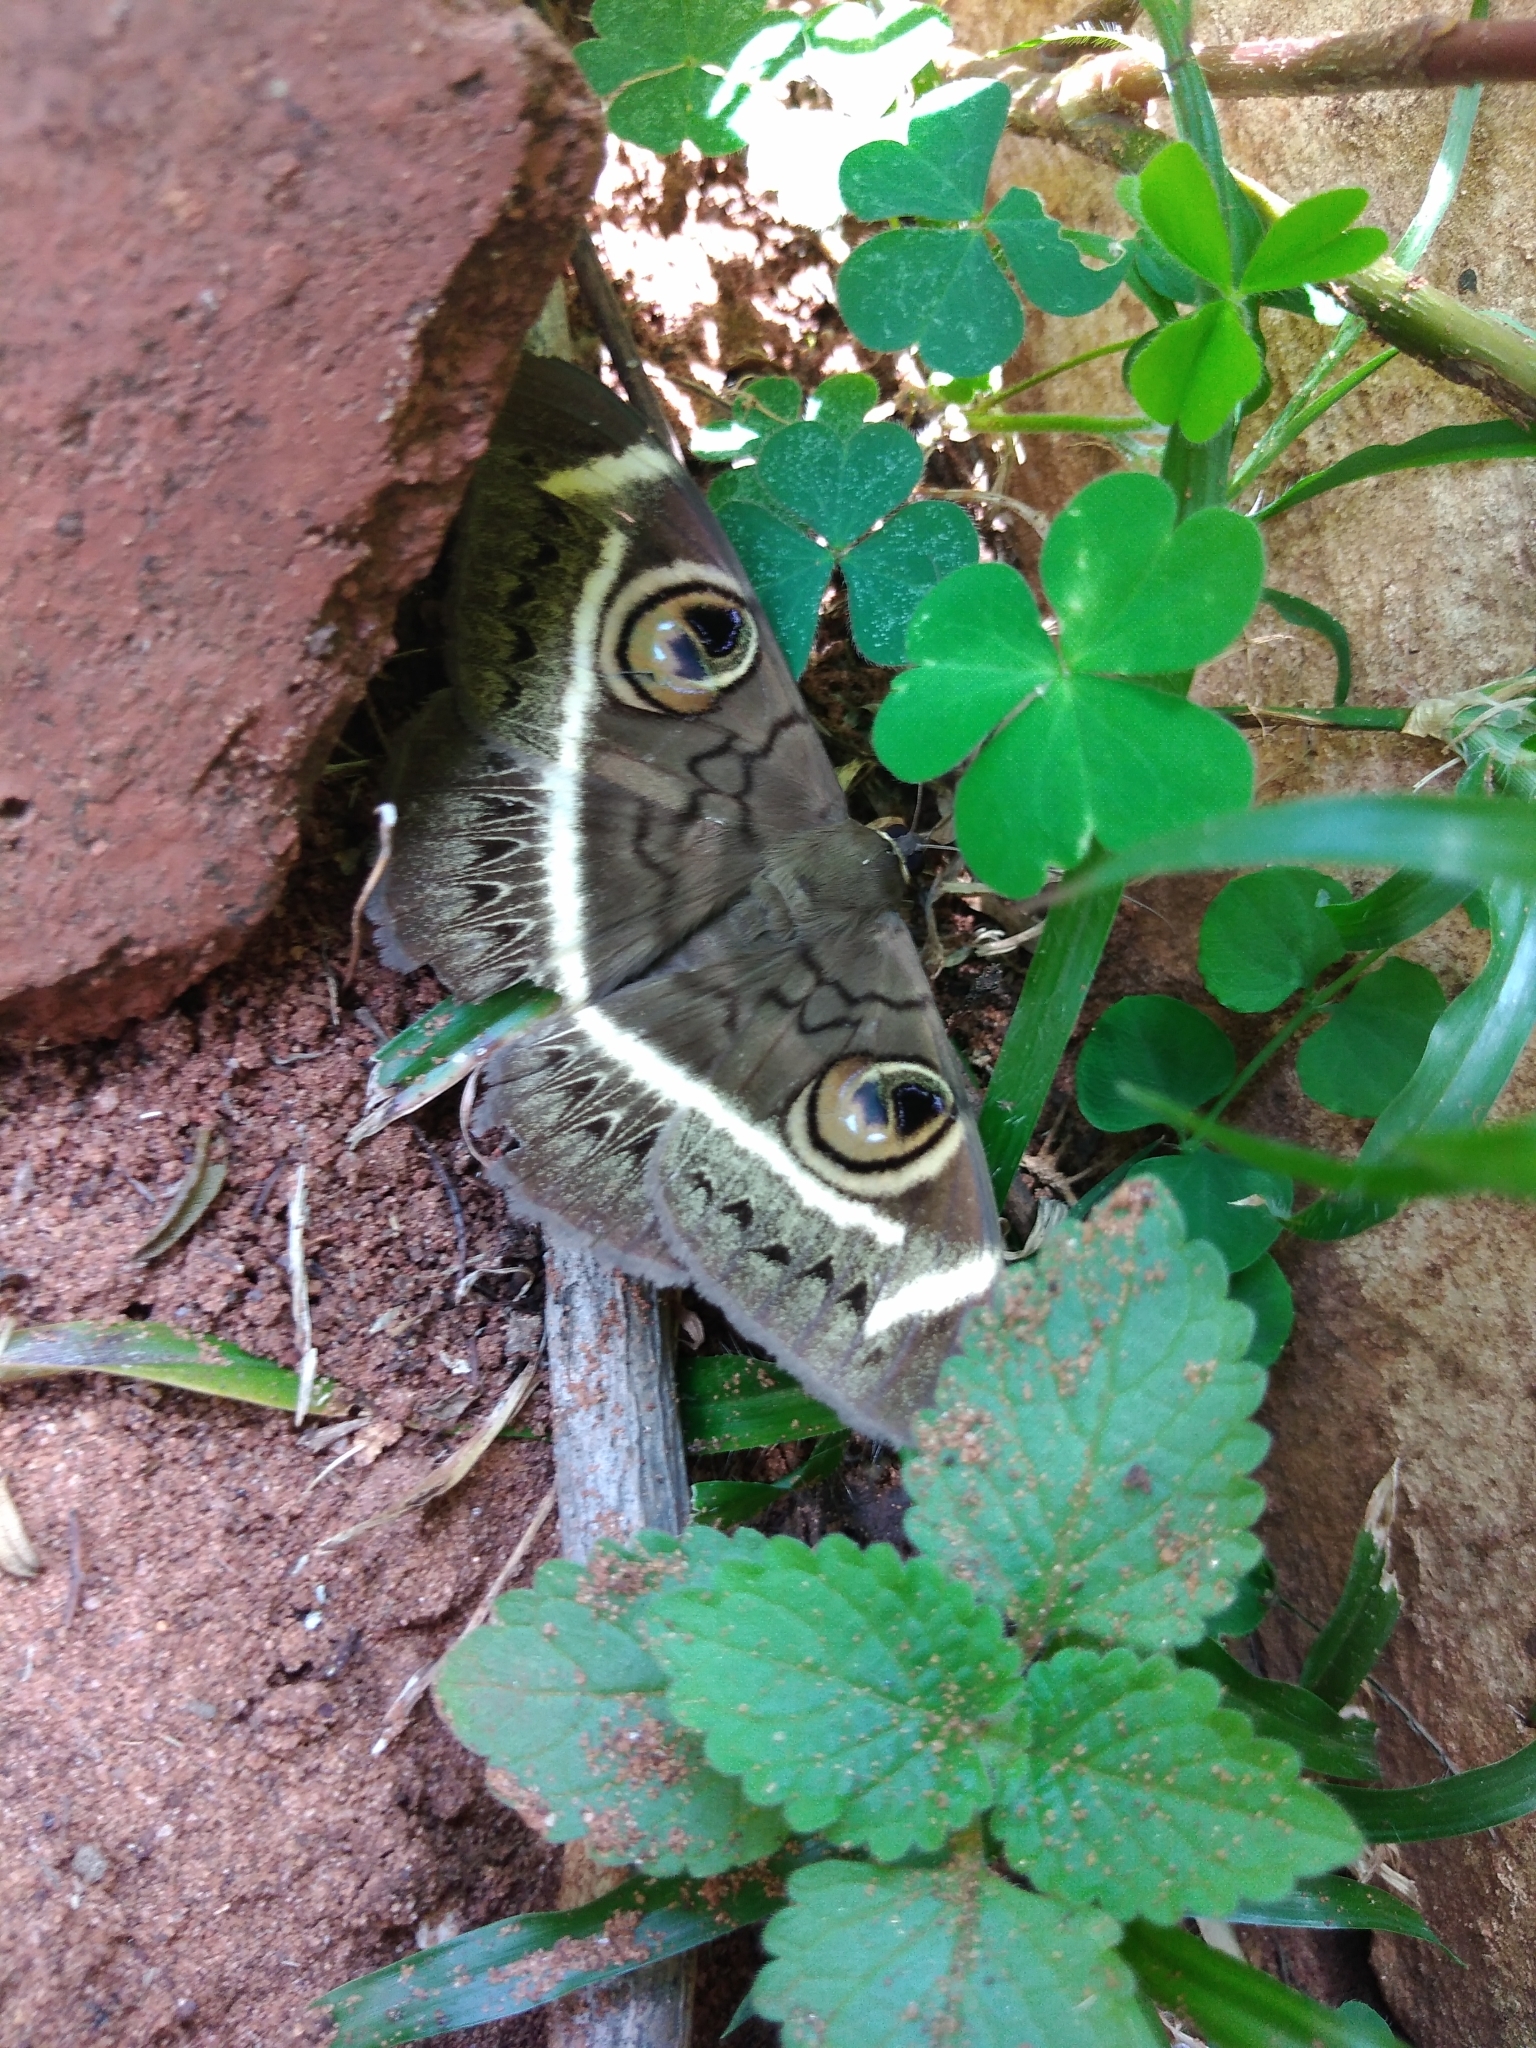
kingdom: Animalia
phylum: Arthropoda
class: Insecta
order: Lepidoptera
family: Erebidae
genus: Cyligramma
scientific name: Cyligramma latona
